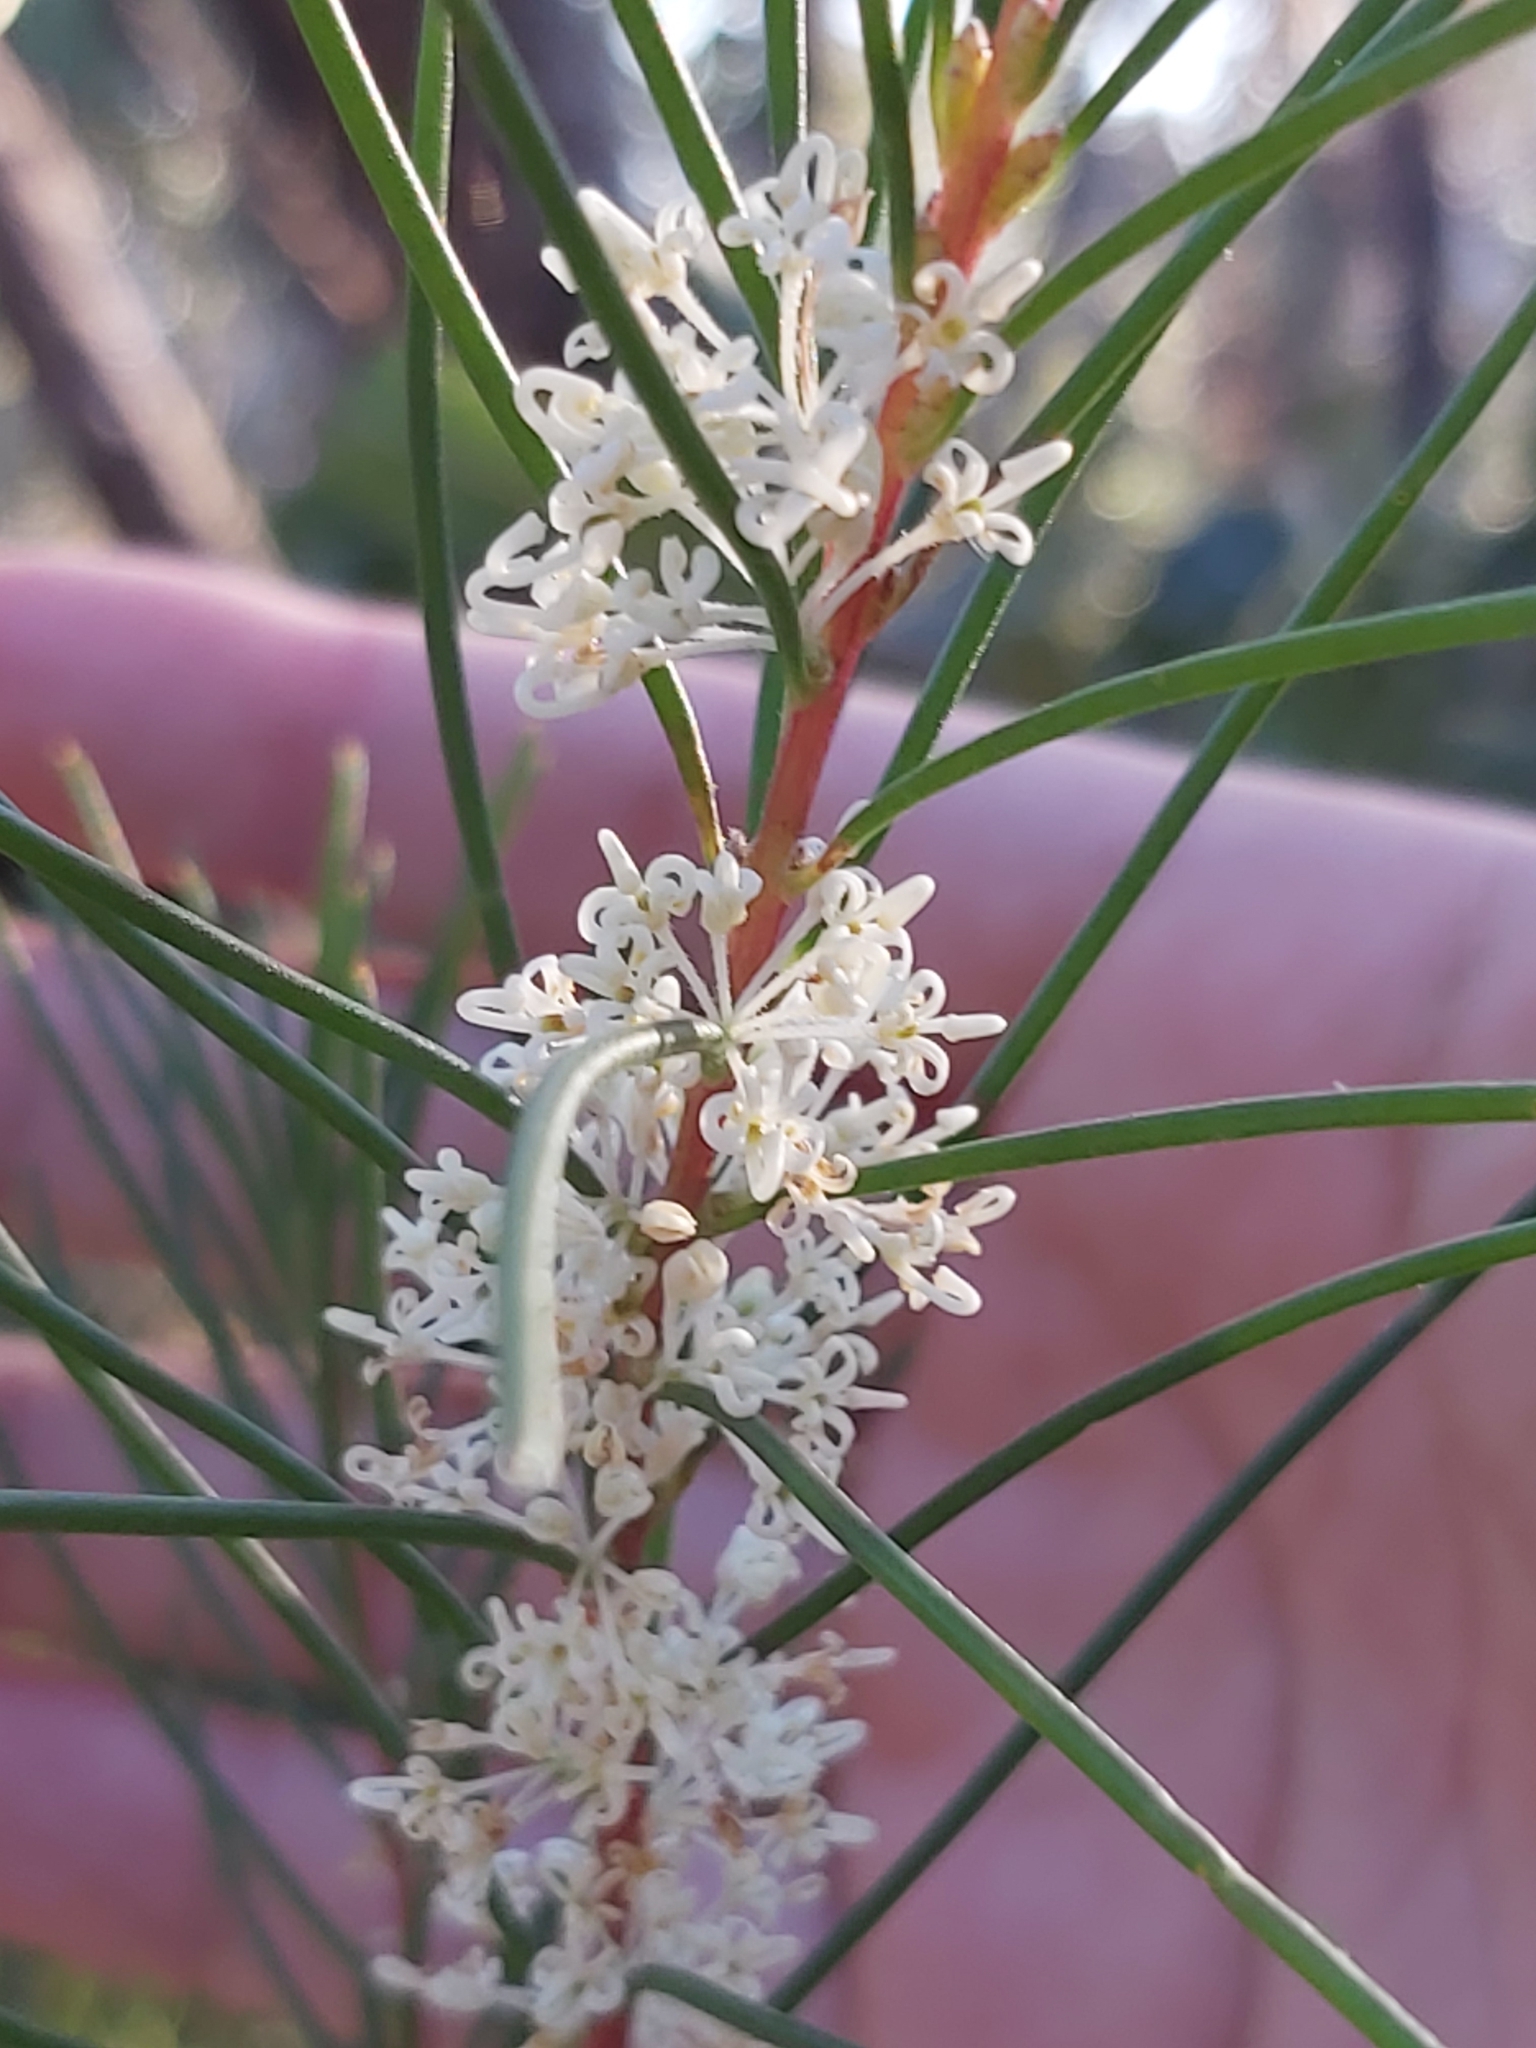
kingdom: Plantae
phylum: Tracheophyta
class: Magnoliopsida
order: Proteales
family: Proteaceae
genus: Hakea
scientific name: Hakea teretifolia
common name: Dagger hakea
